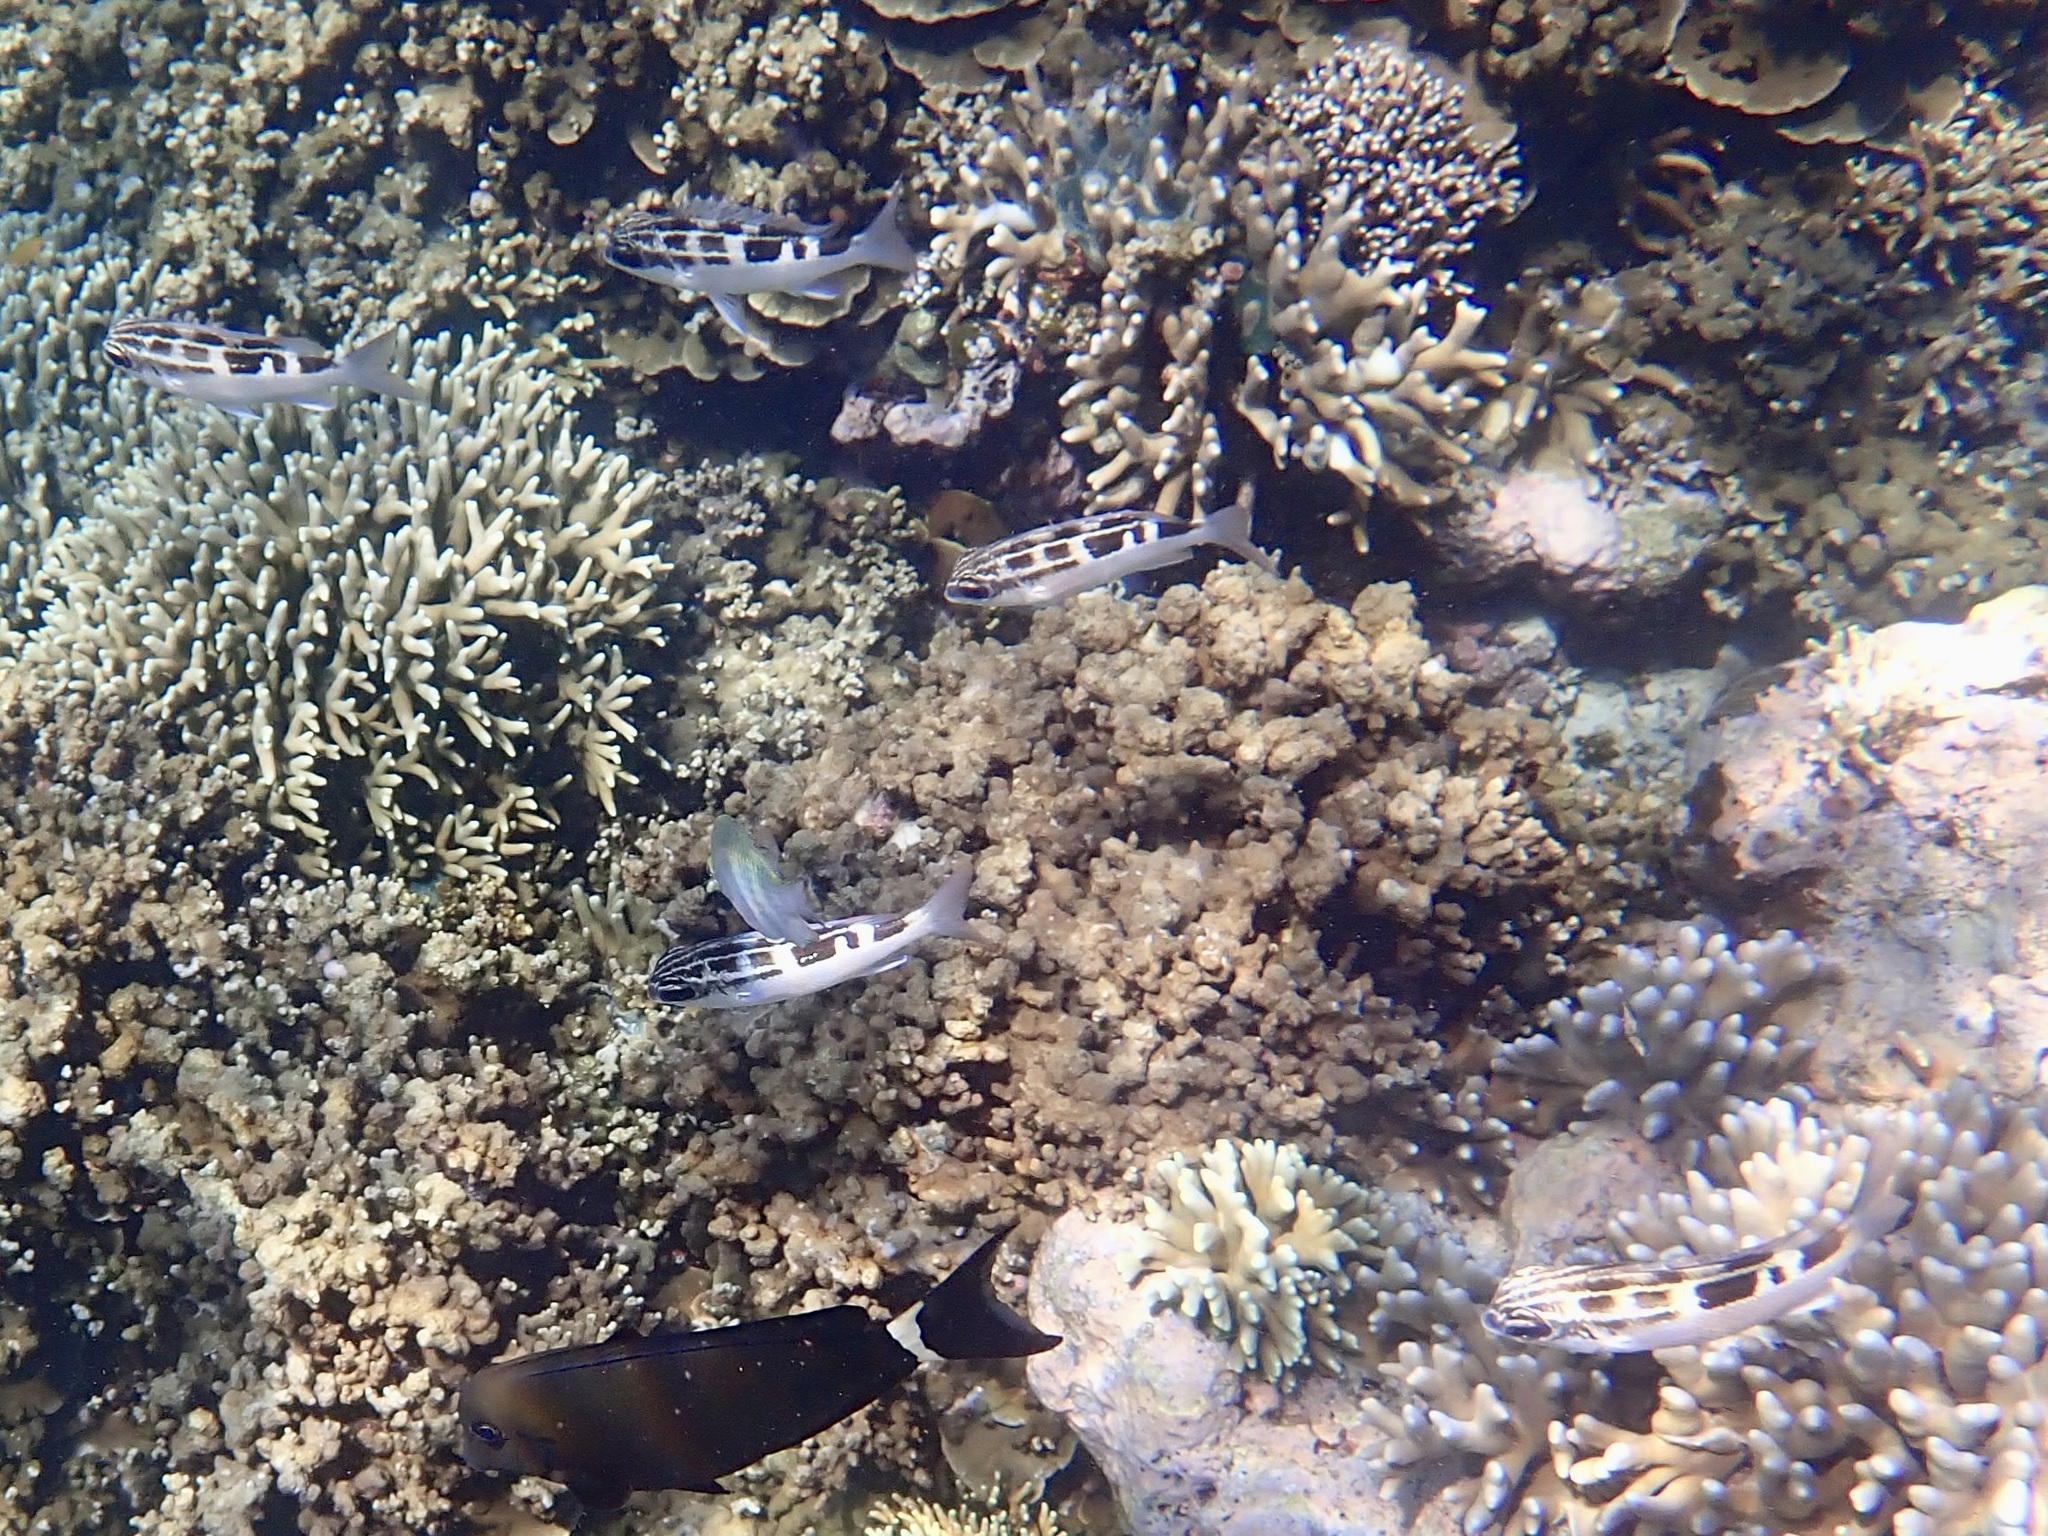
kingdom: Animalia
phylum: Chordata
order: Perciformes
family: Nemipteridae
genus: Scolopsis
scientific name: Scolopsis lineata
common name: Striped monocle bream
